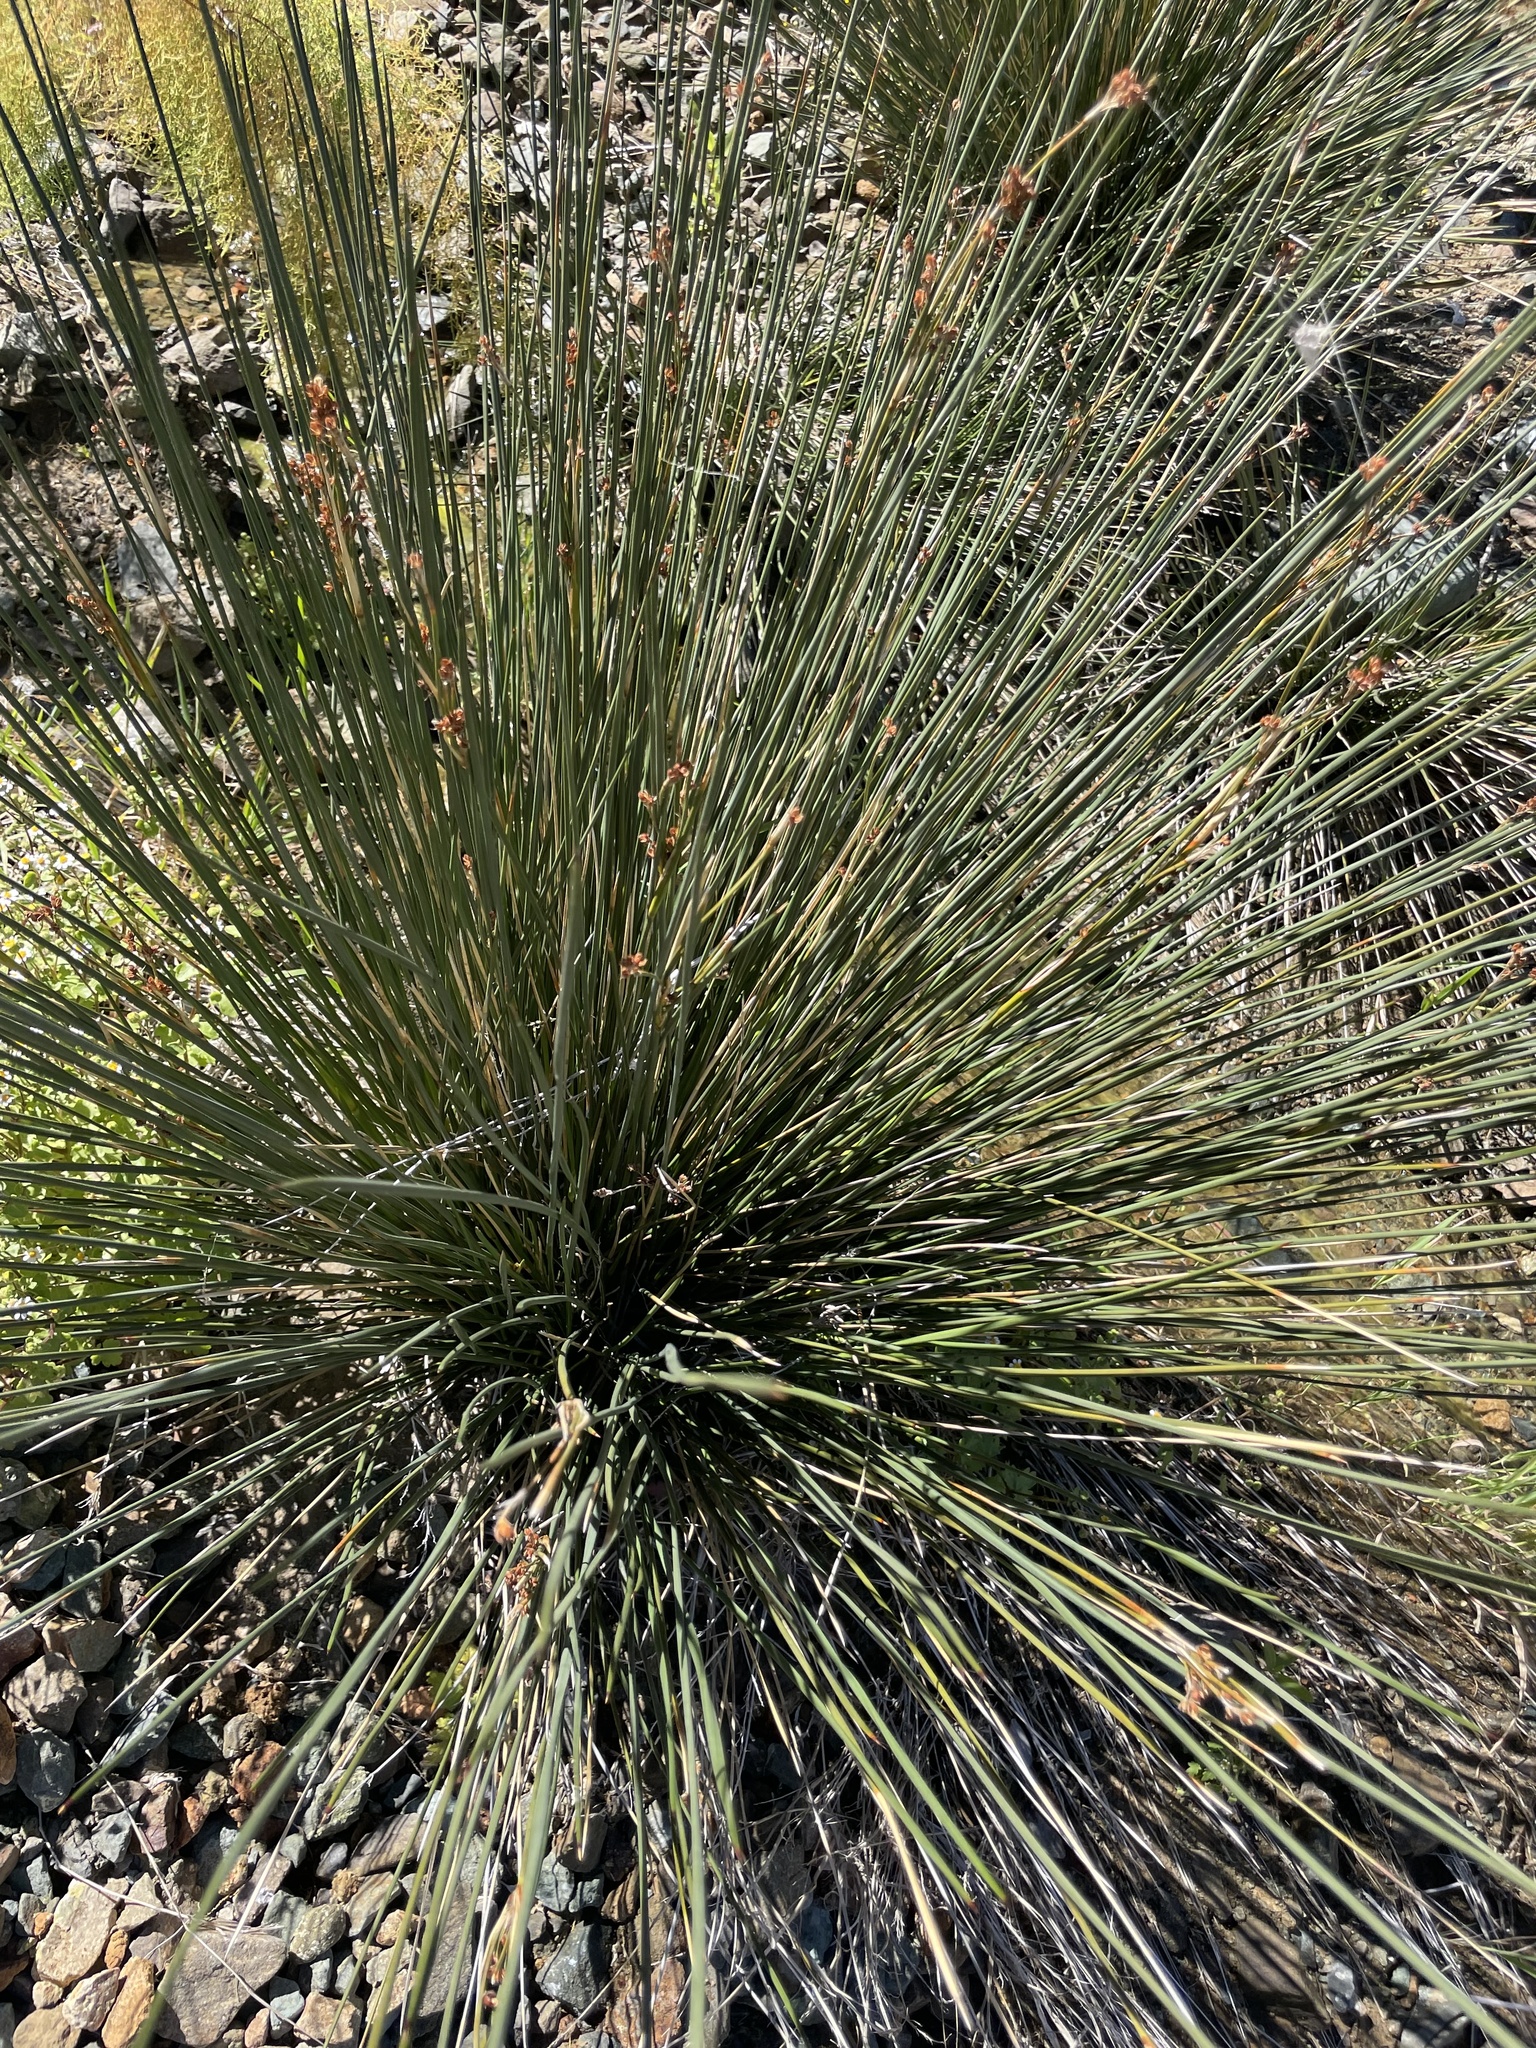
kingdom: Plantae
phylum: Tracheophyta
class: Liliopsida
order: Poales
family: Juncaceae
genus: Juncus
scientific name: Juncus acutus
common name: Sharp rush
